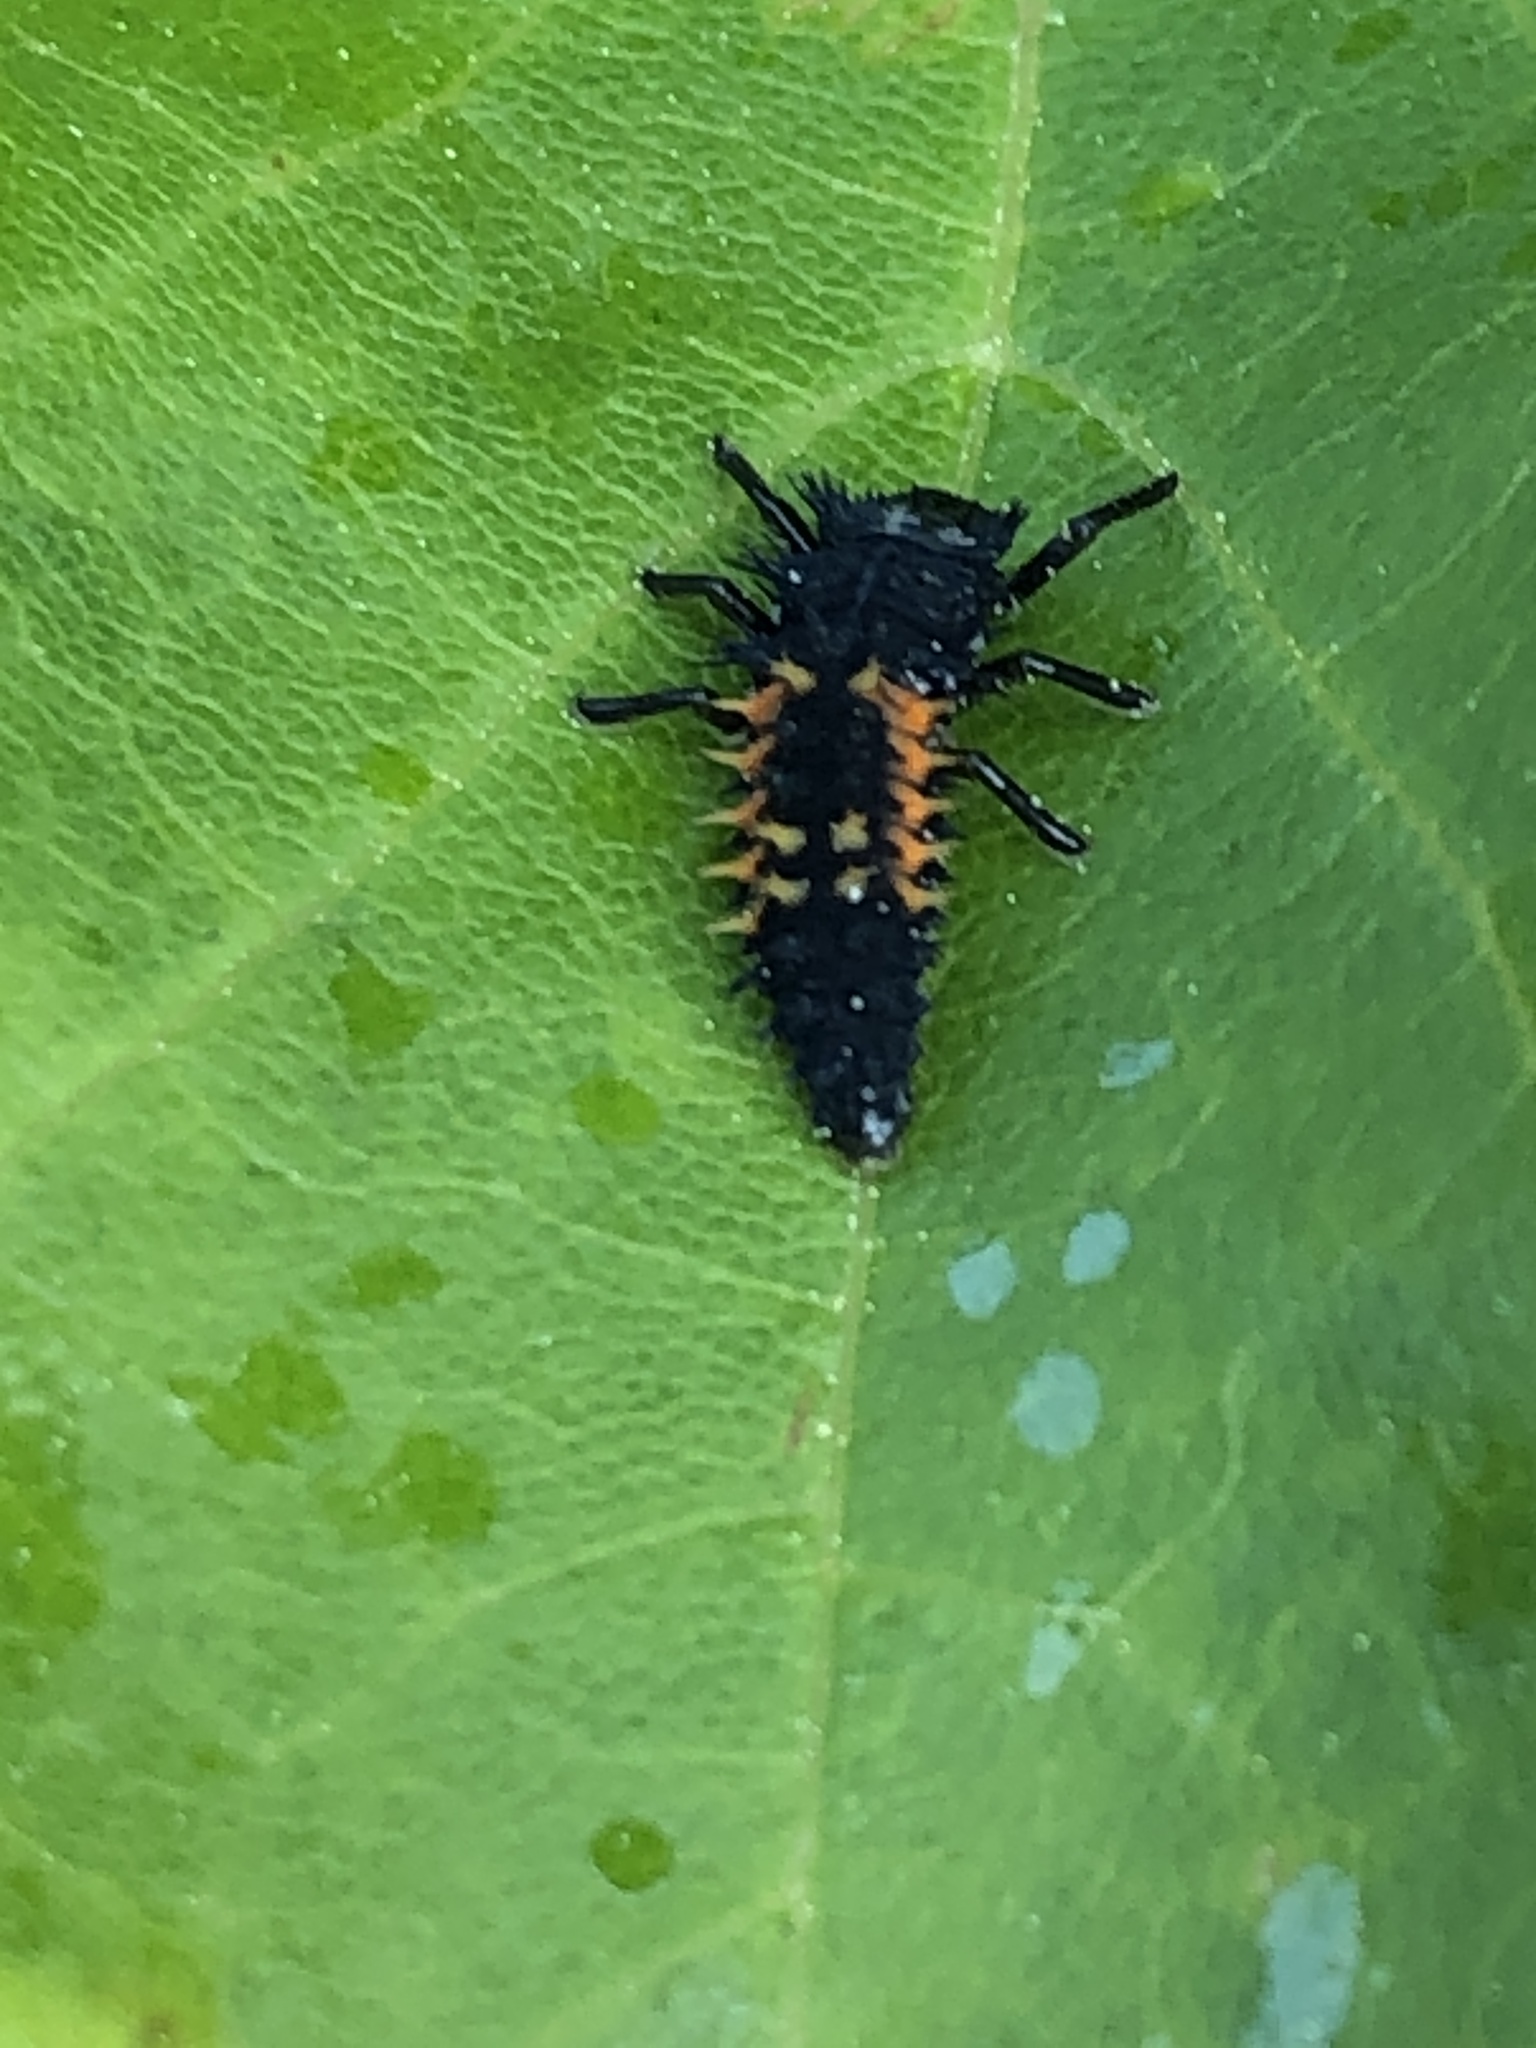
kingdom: Animalia
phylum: Arthropoda
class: Insecta
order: Coleoptera
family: Coccinellidae
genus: Harmonia
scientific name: Harmonia axyridis
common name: Harlequin ladybird
